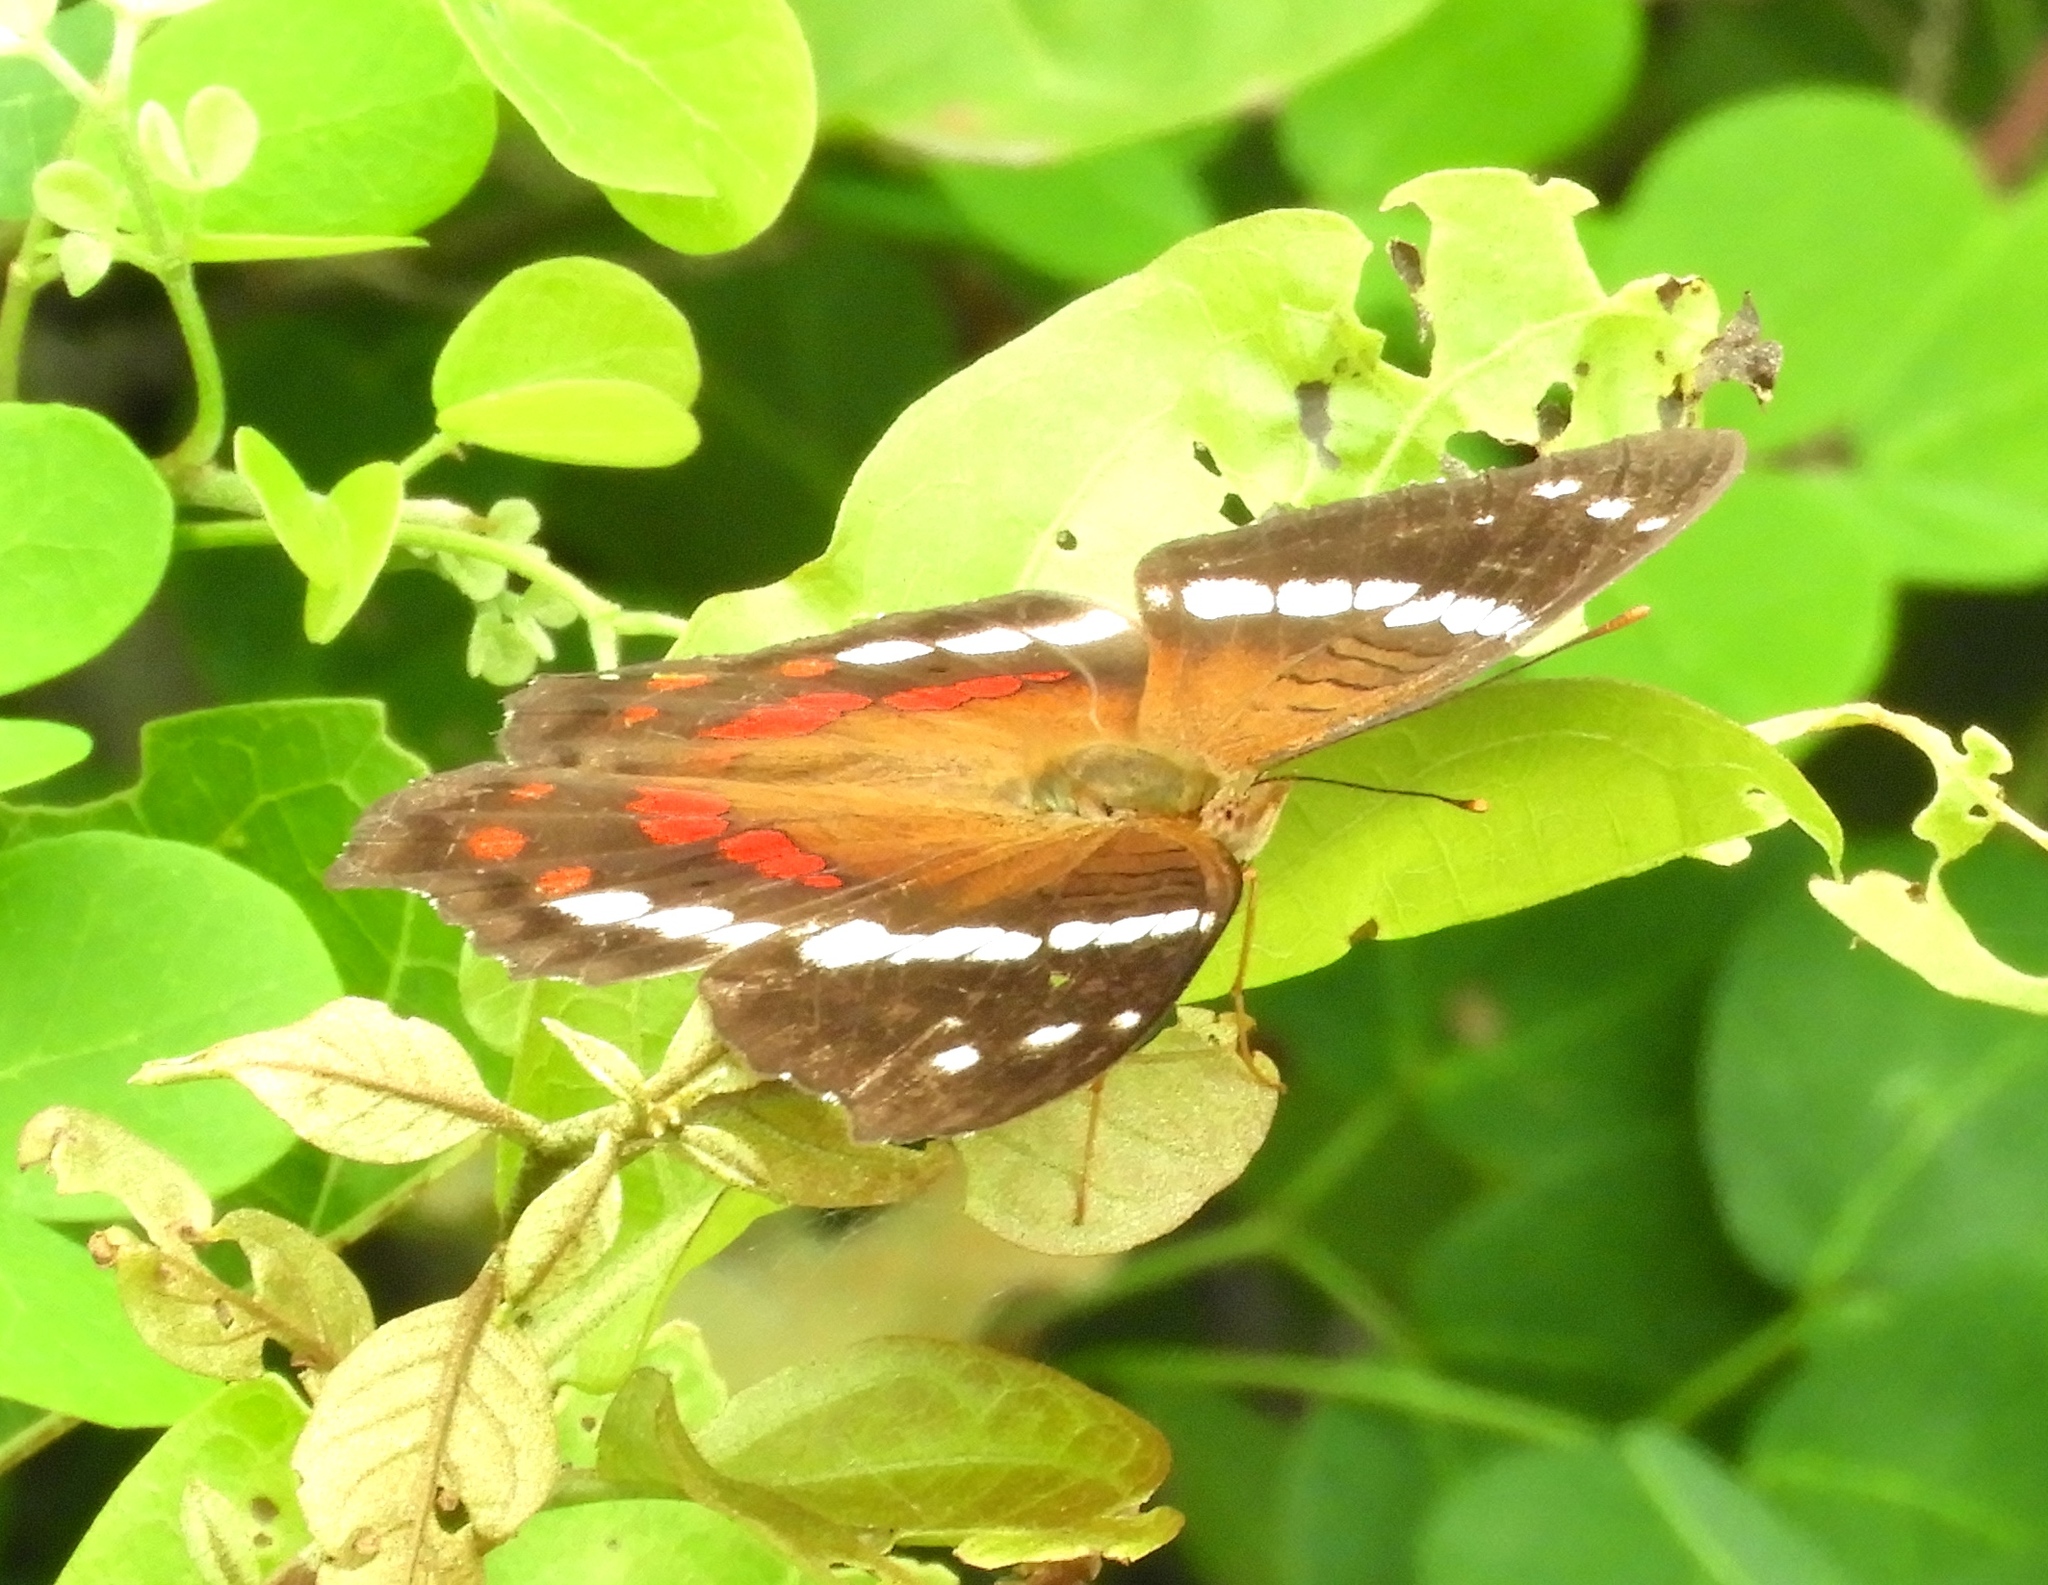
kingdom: Animalia
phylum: Arthropoda
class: Insecta
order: Lepidoptera
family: Nymphalidae
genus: Anartia
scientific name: Anartia fatima
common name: Banded peacock
